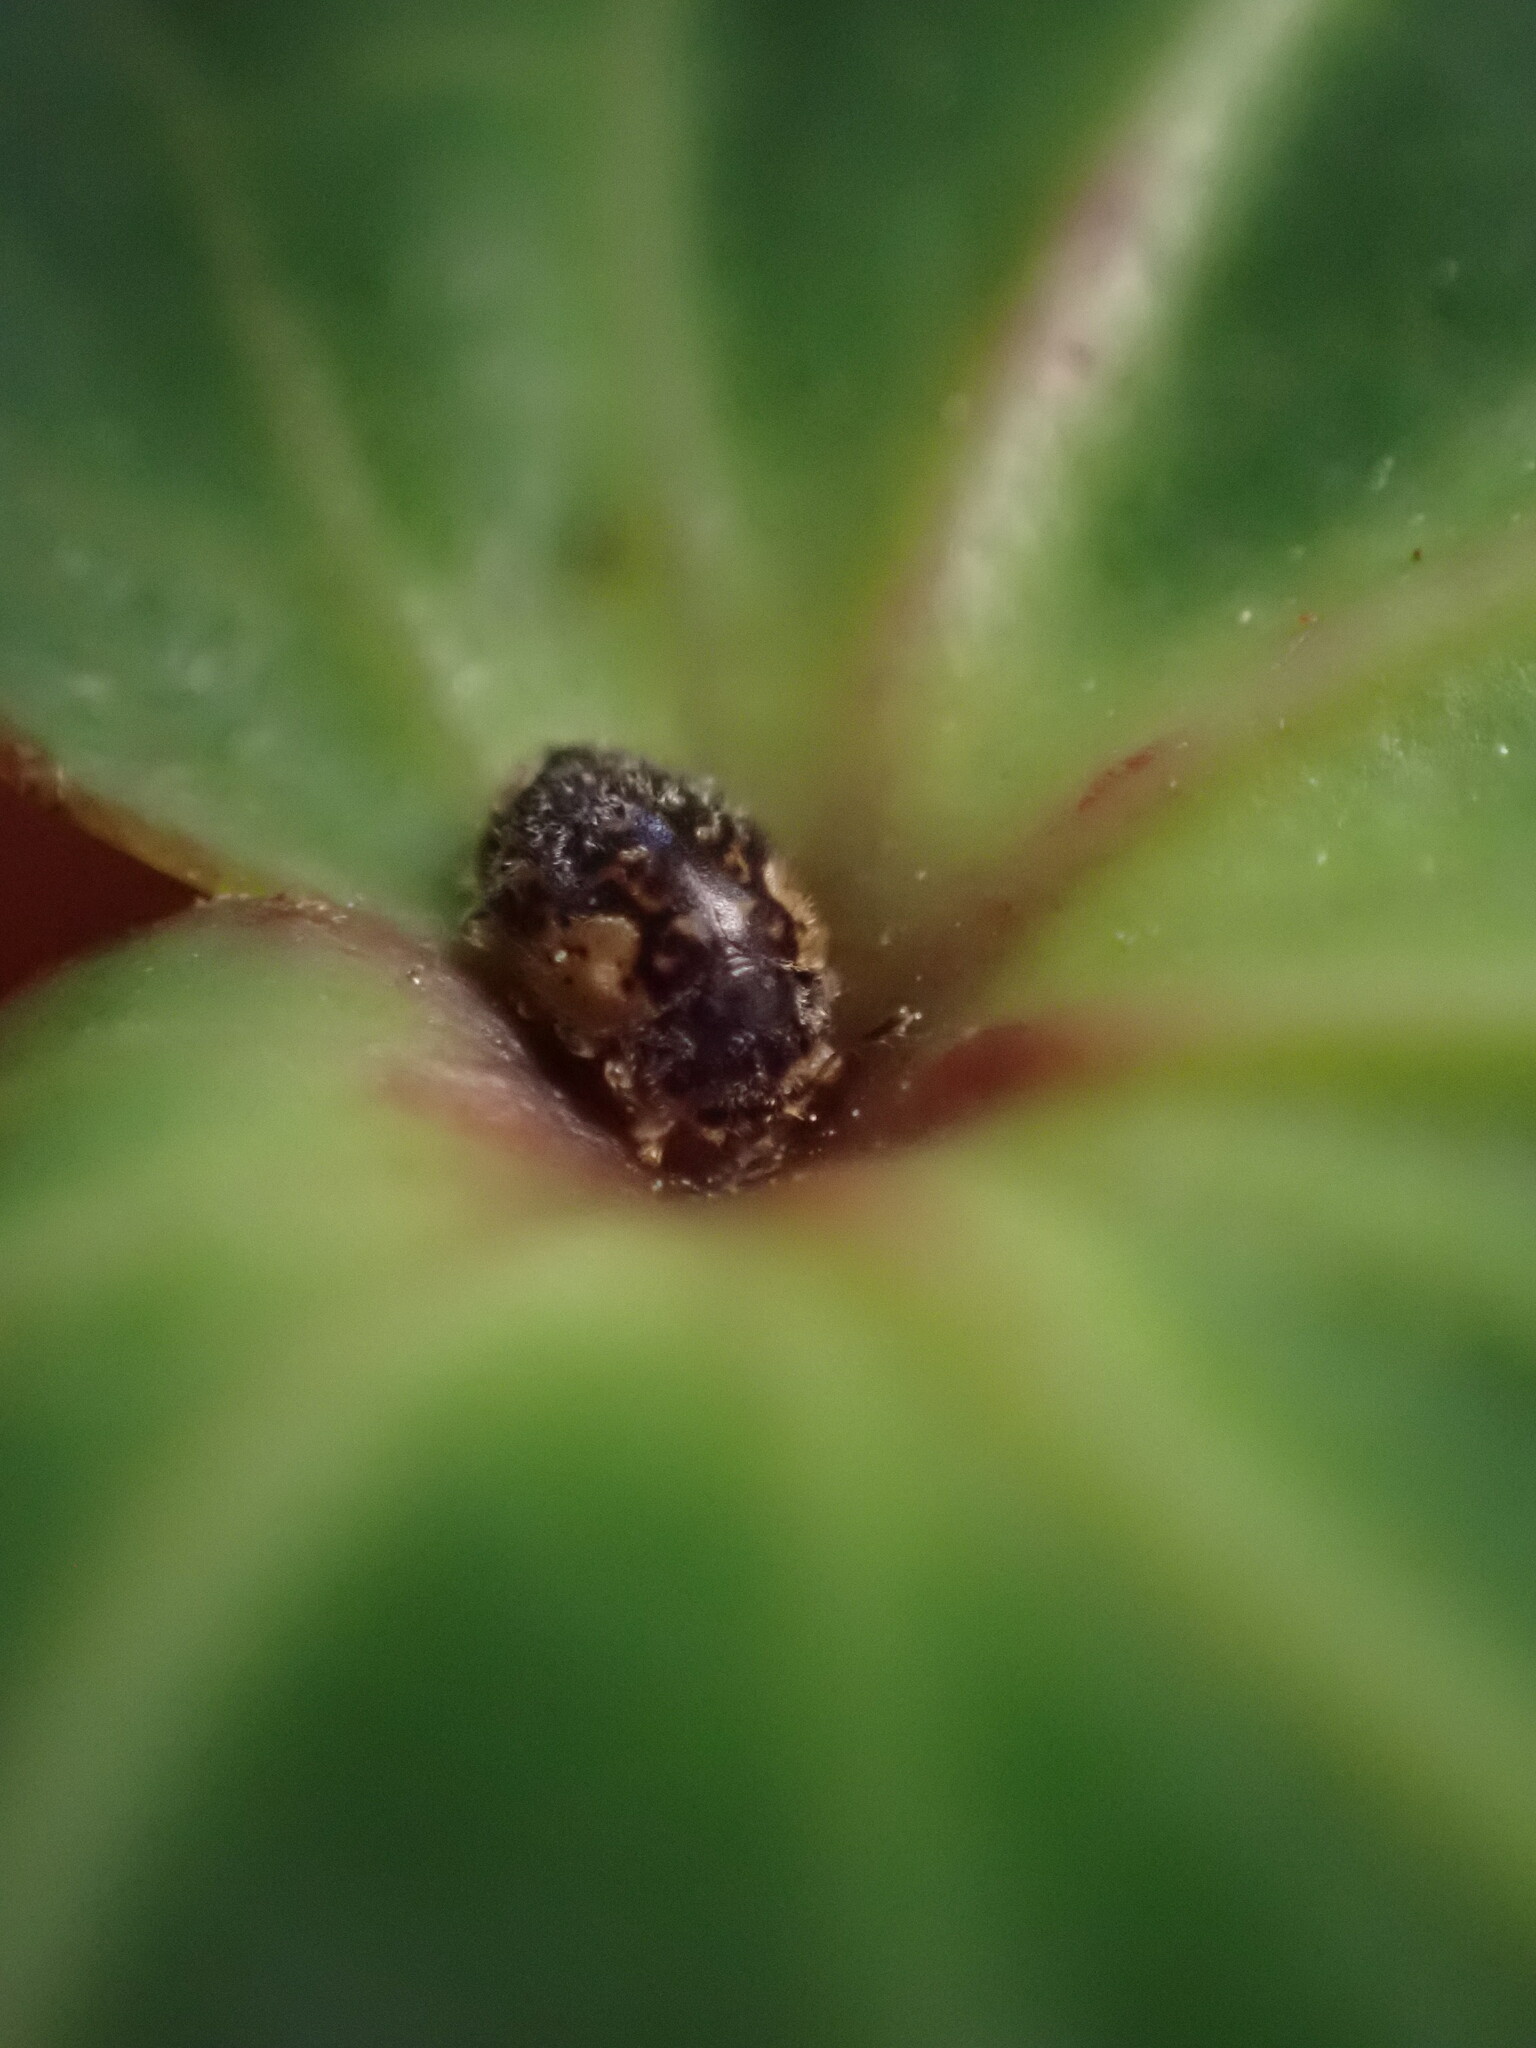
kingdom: Animalia
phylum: Arthropoda
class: Insecta
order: Coleoptera
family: Coccinellidae
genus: Rhyzobius
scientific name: Rhyzobius
